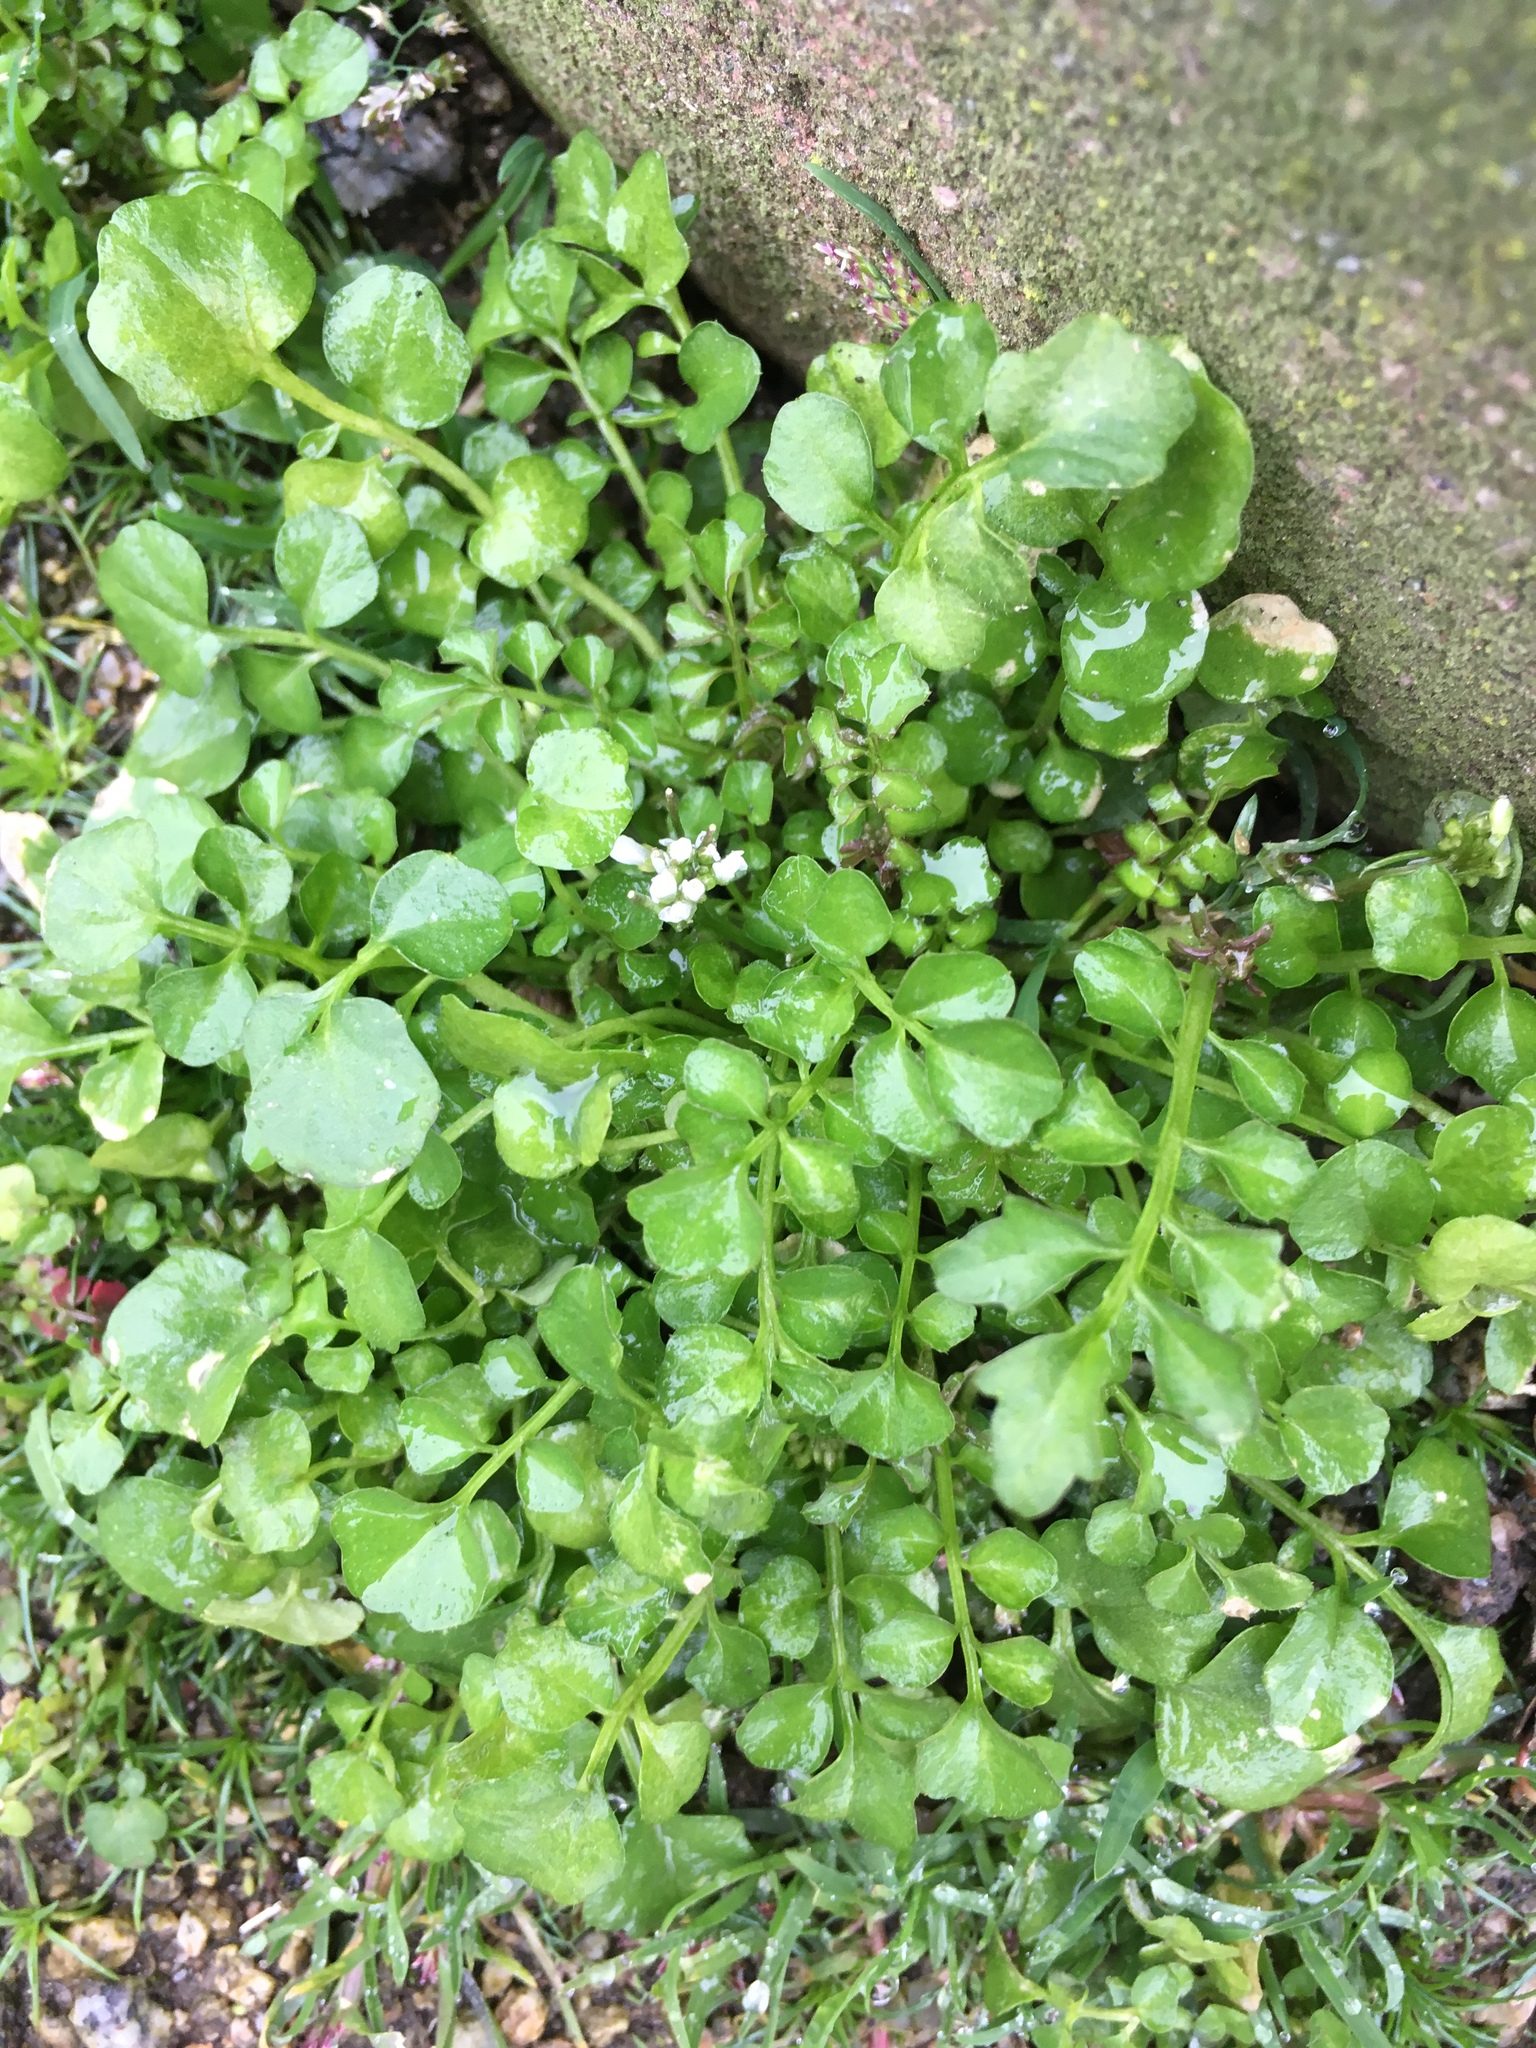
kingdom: Plantae
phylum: Tracheophyta
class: Magnoliopsida
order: Brassicales
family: Brassicaceae
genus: Cardamine
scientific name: Cardamine hirsuta
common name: Hairy bittercress
